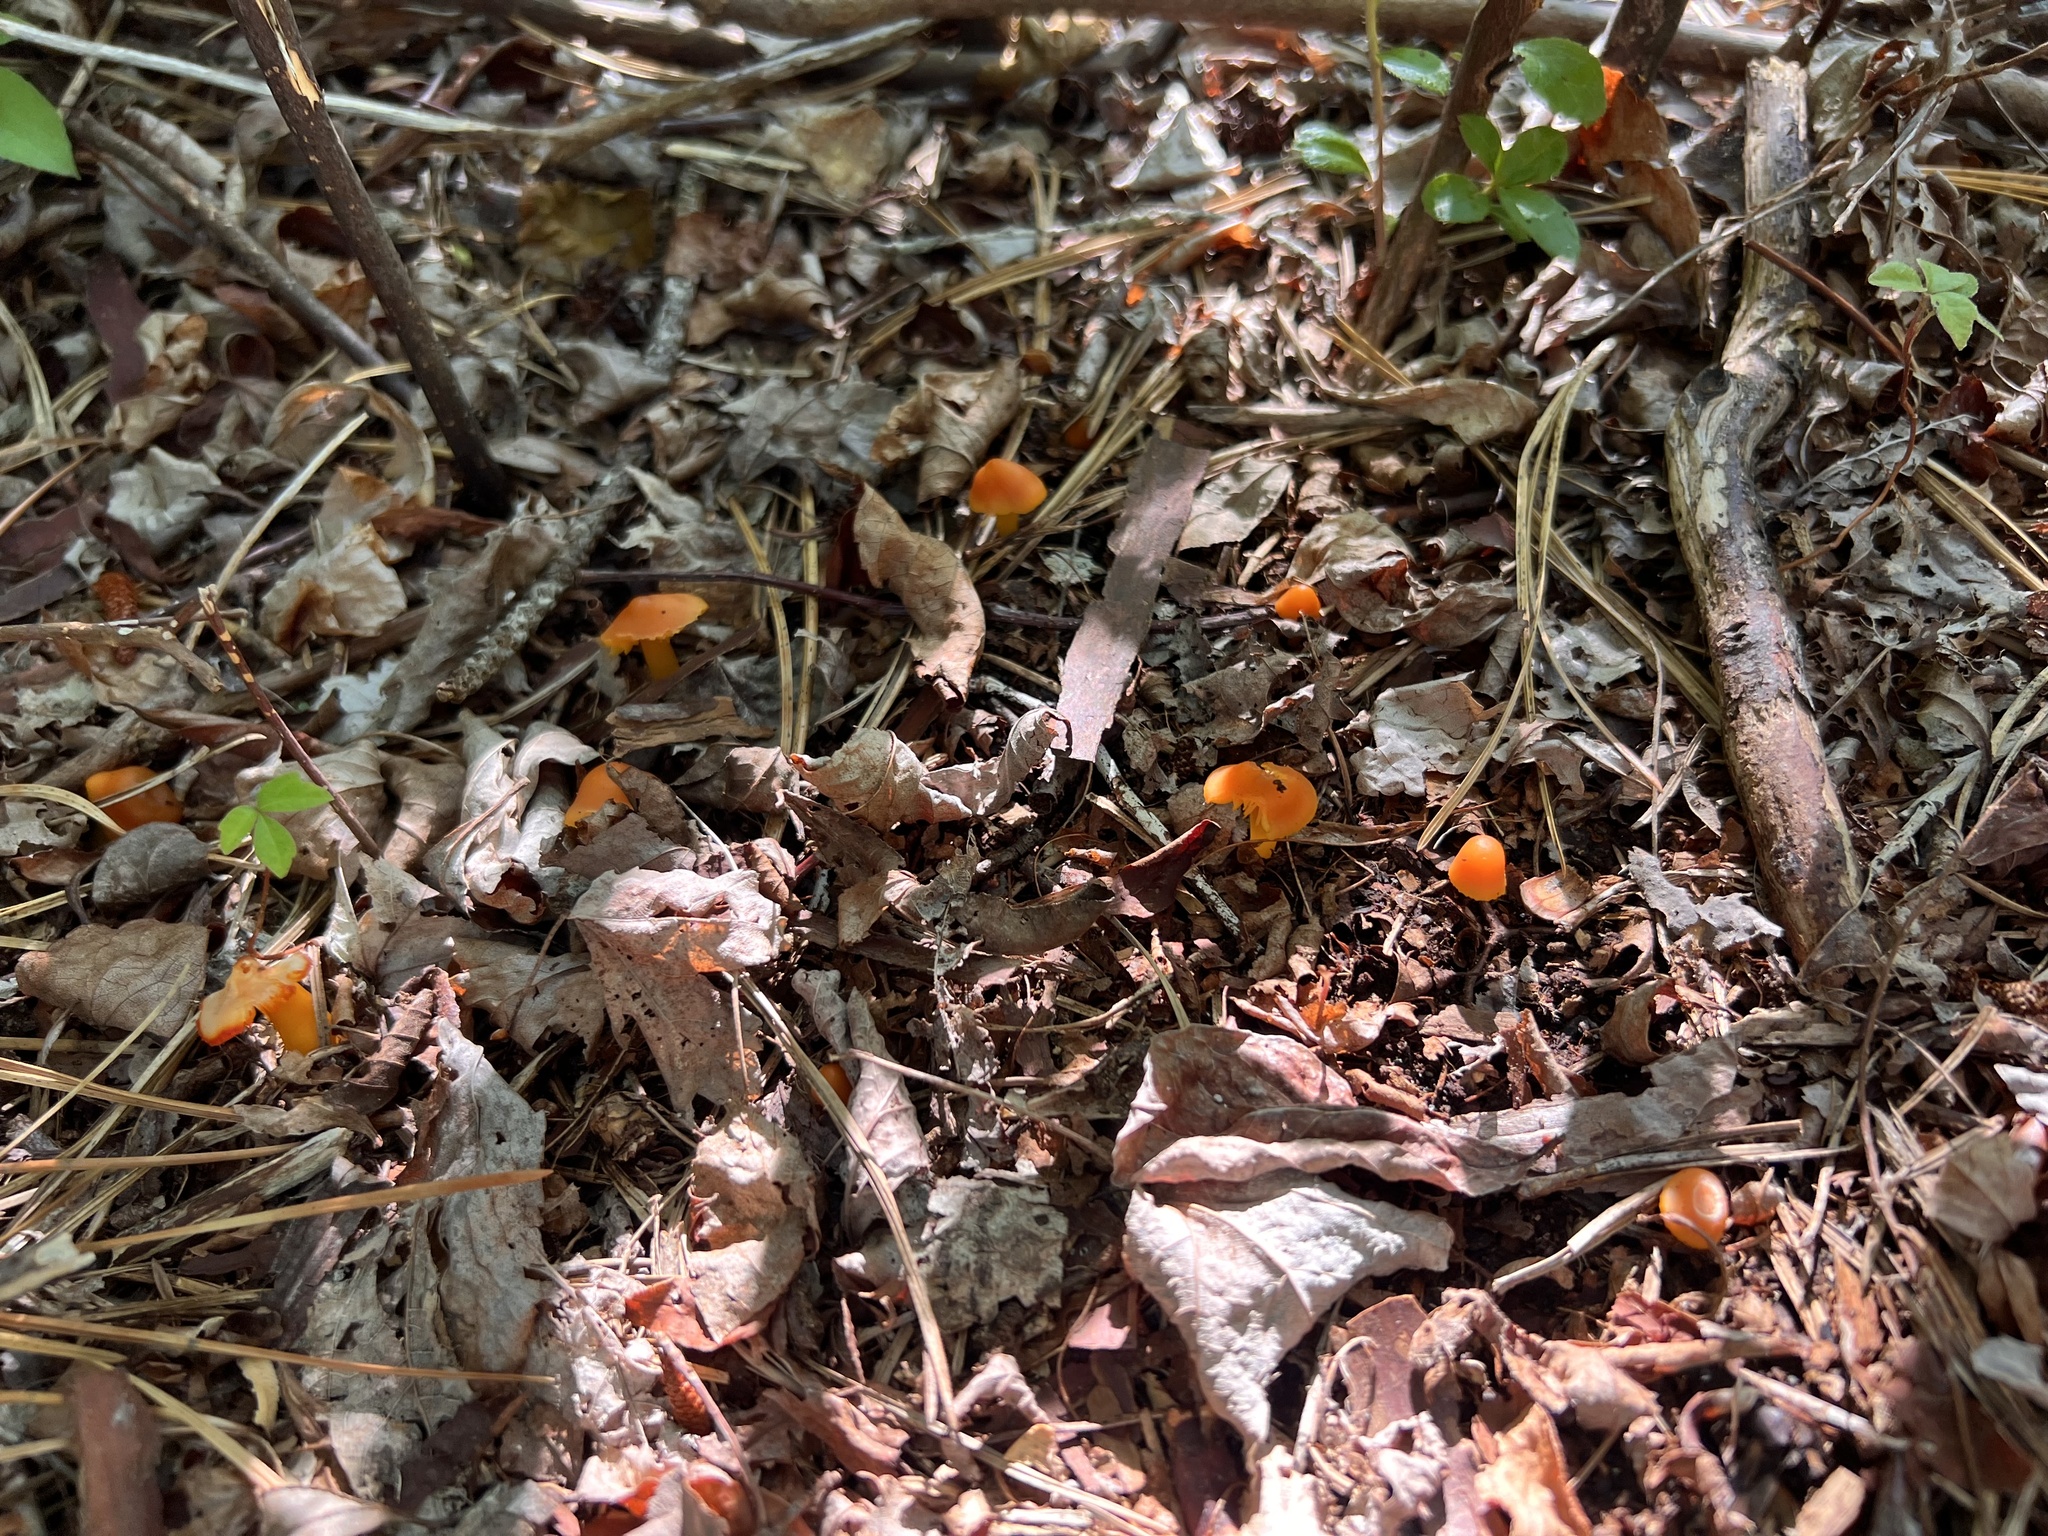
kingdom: Fungi
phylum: Basidiomycota
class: Agaricomycetes
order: Agaricales
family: Hygrophoraceae
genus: Humidicutis
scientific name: Humidicutis marginata
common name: Orange gilled waxcap
